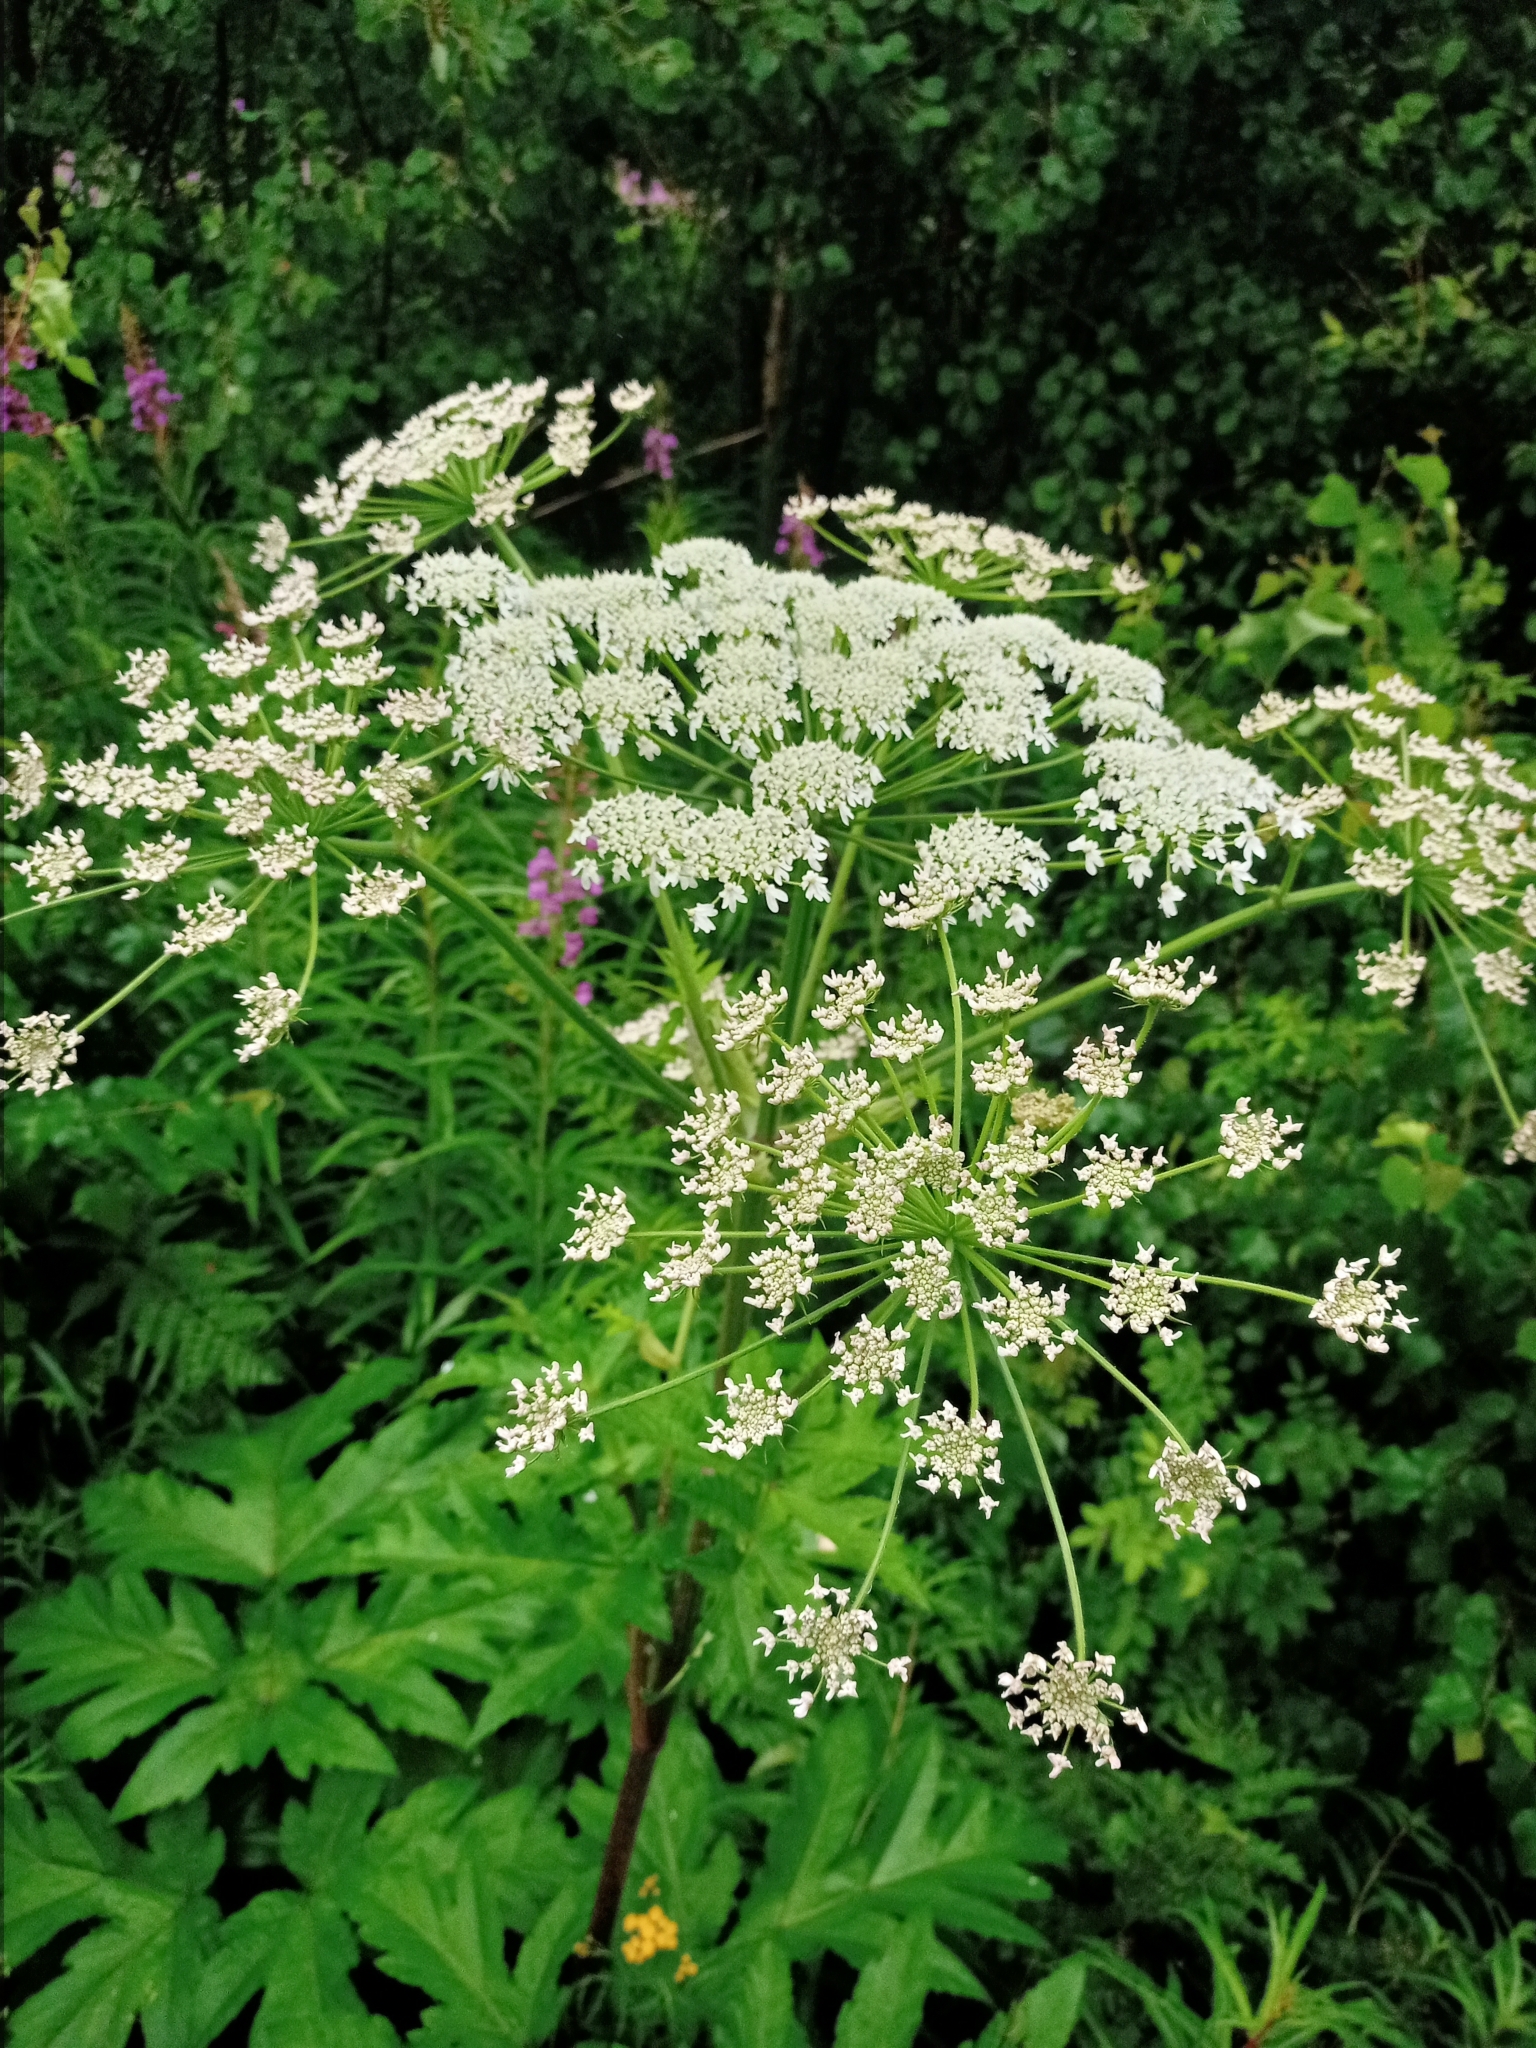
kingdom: Plantae
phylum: Tracheophyta
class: Magnoliopsida
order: Apiales
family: Apiaceae
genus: Heracleum
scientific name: Heracleum dissectum
